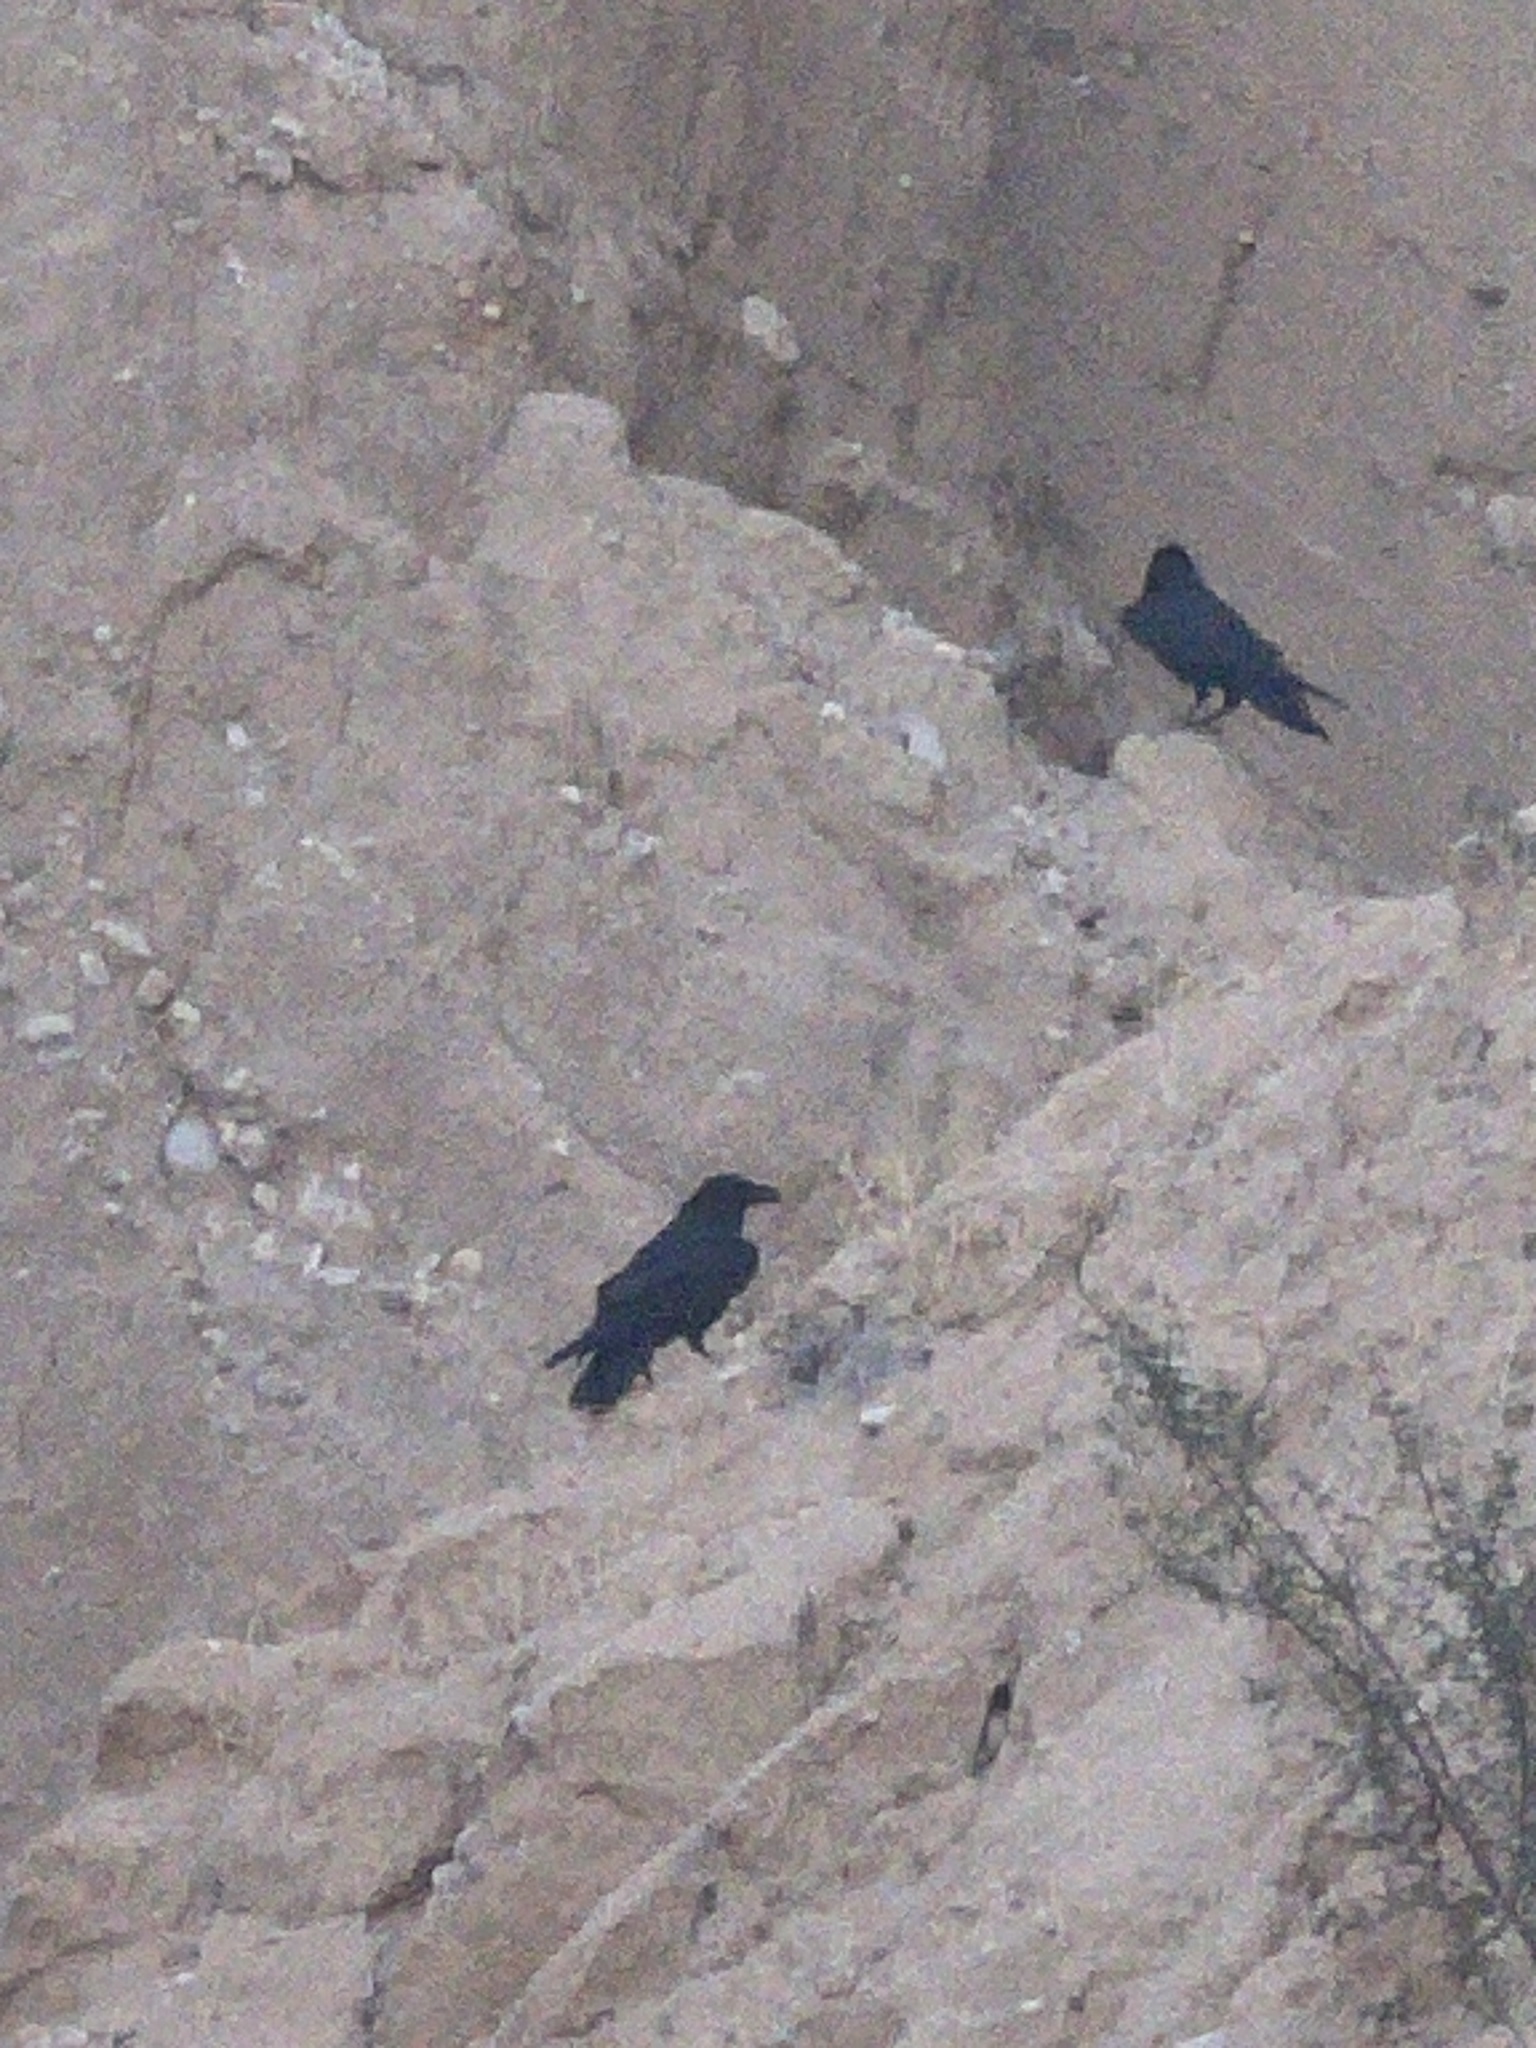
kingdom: Animalia
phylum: Chordata
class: Aves
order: Passeriformes
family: Corvidae
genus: Corvus
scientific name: Corvus corax
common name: Common raven
